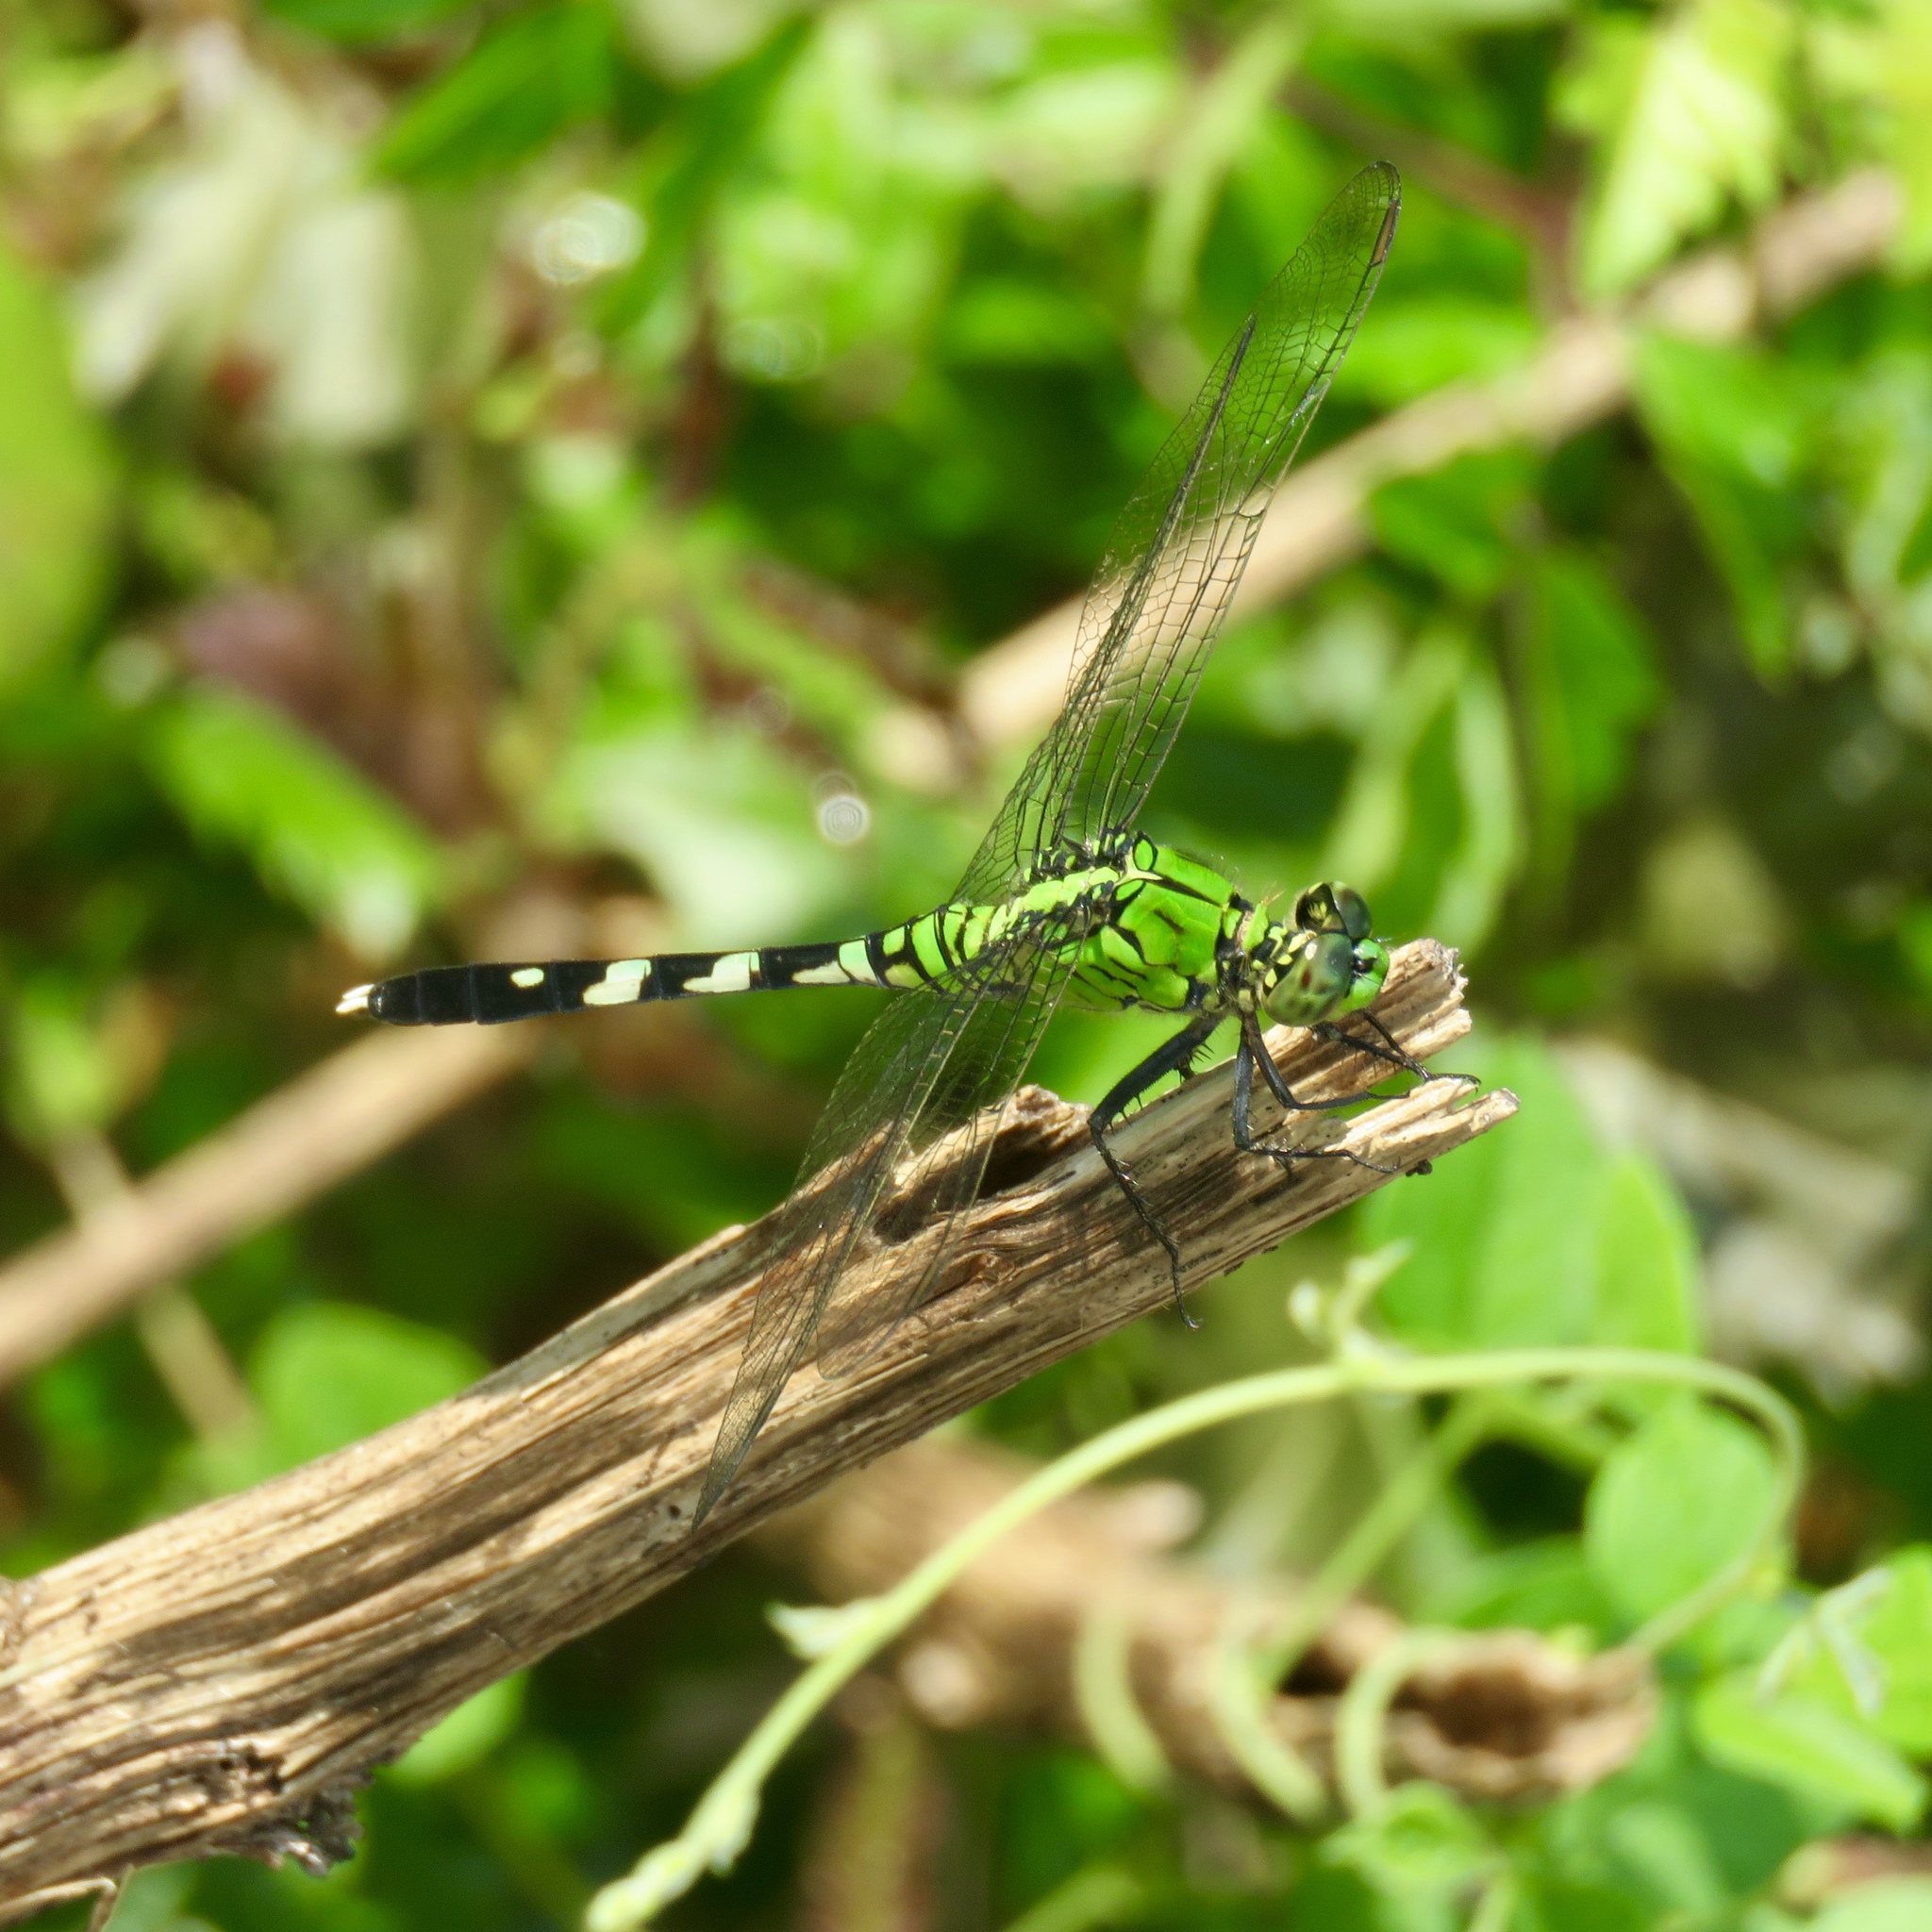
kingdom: Animalia
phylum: Arthropoda
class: Insecta
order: Odonata
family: Libellulidae
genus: Erythemis
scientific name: Erythemis simplicicollis
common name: Eastern pondhawk
